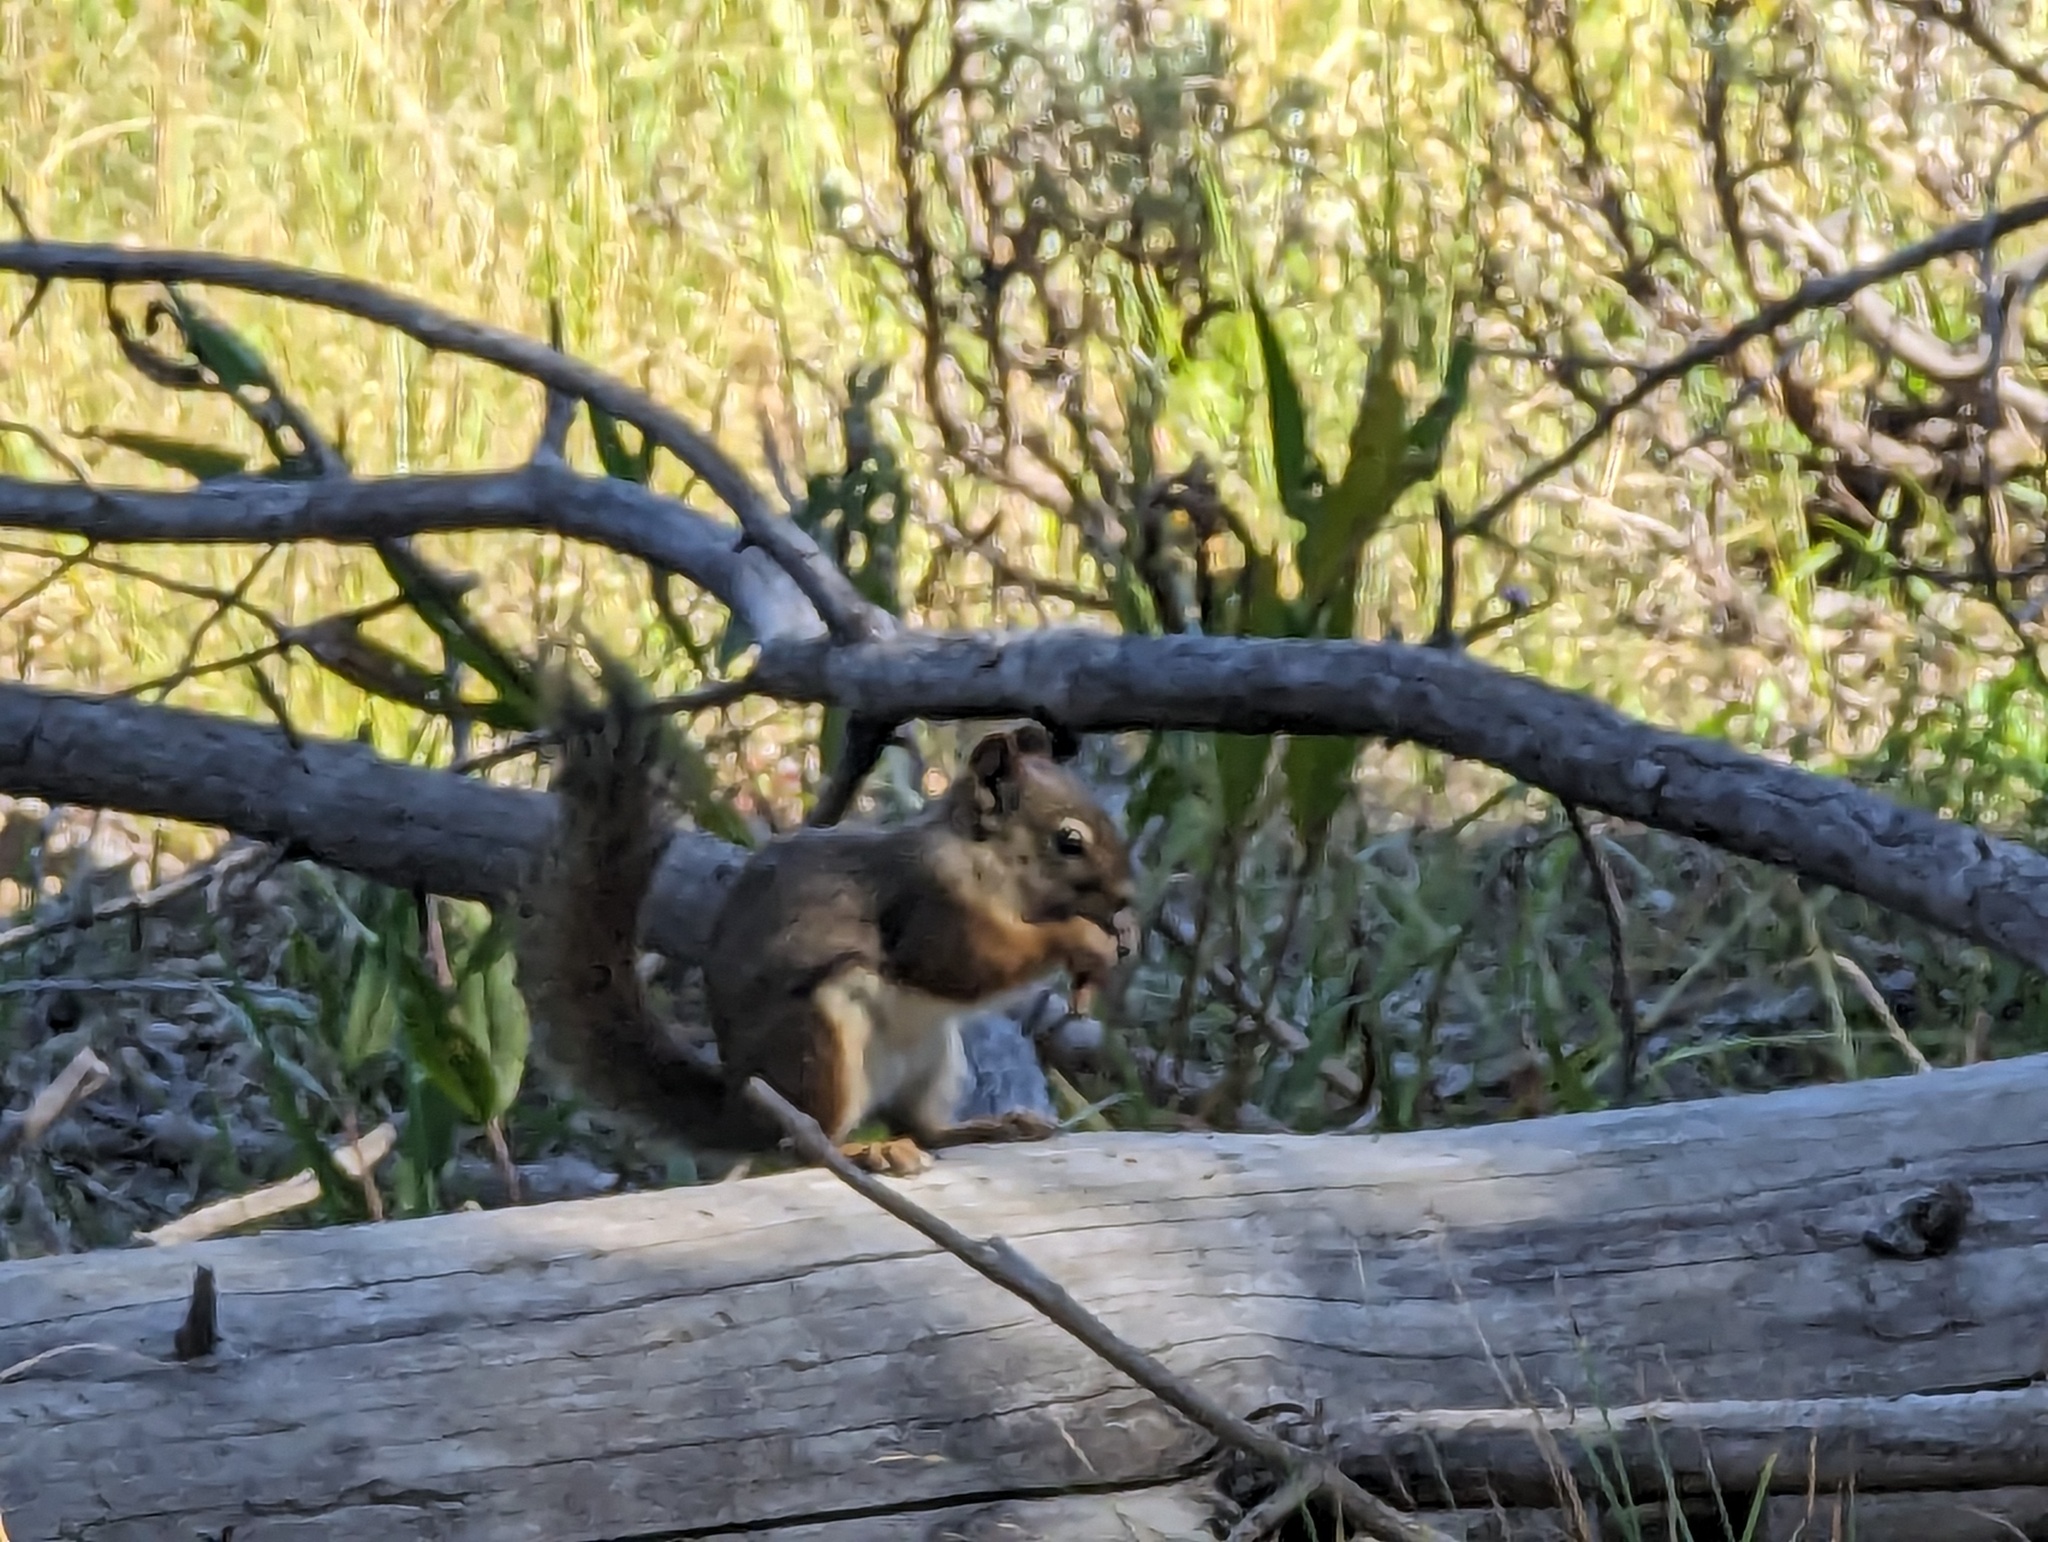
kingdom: Animalia
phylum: Chordata
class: Mammalia
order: Rodentia
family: Sciuridae
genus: Tamiasciurus
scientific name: Tamiasciurus hudsonicus
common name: Red squirrel
